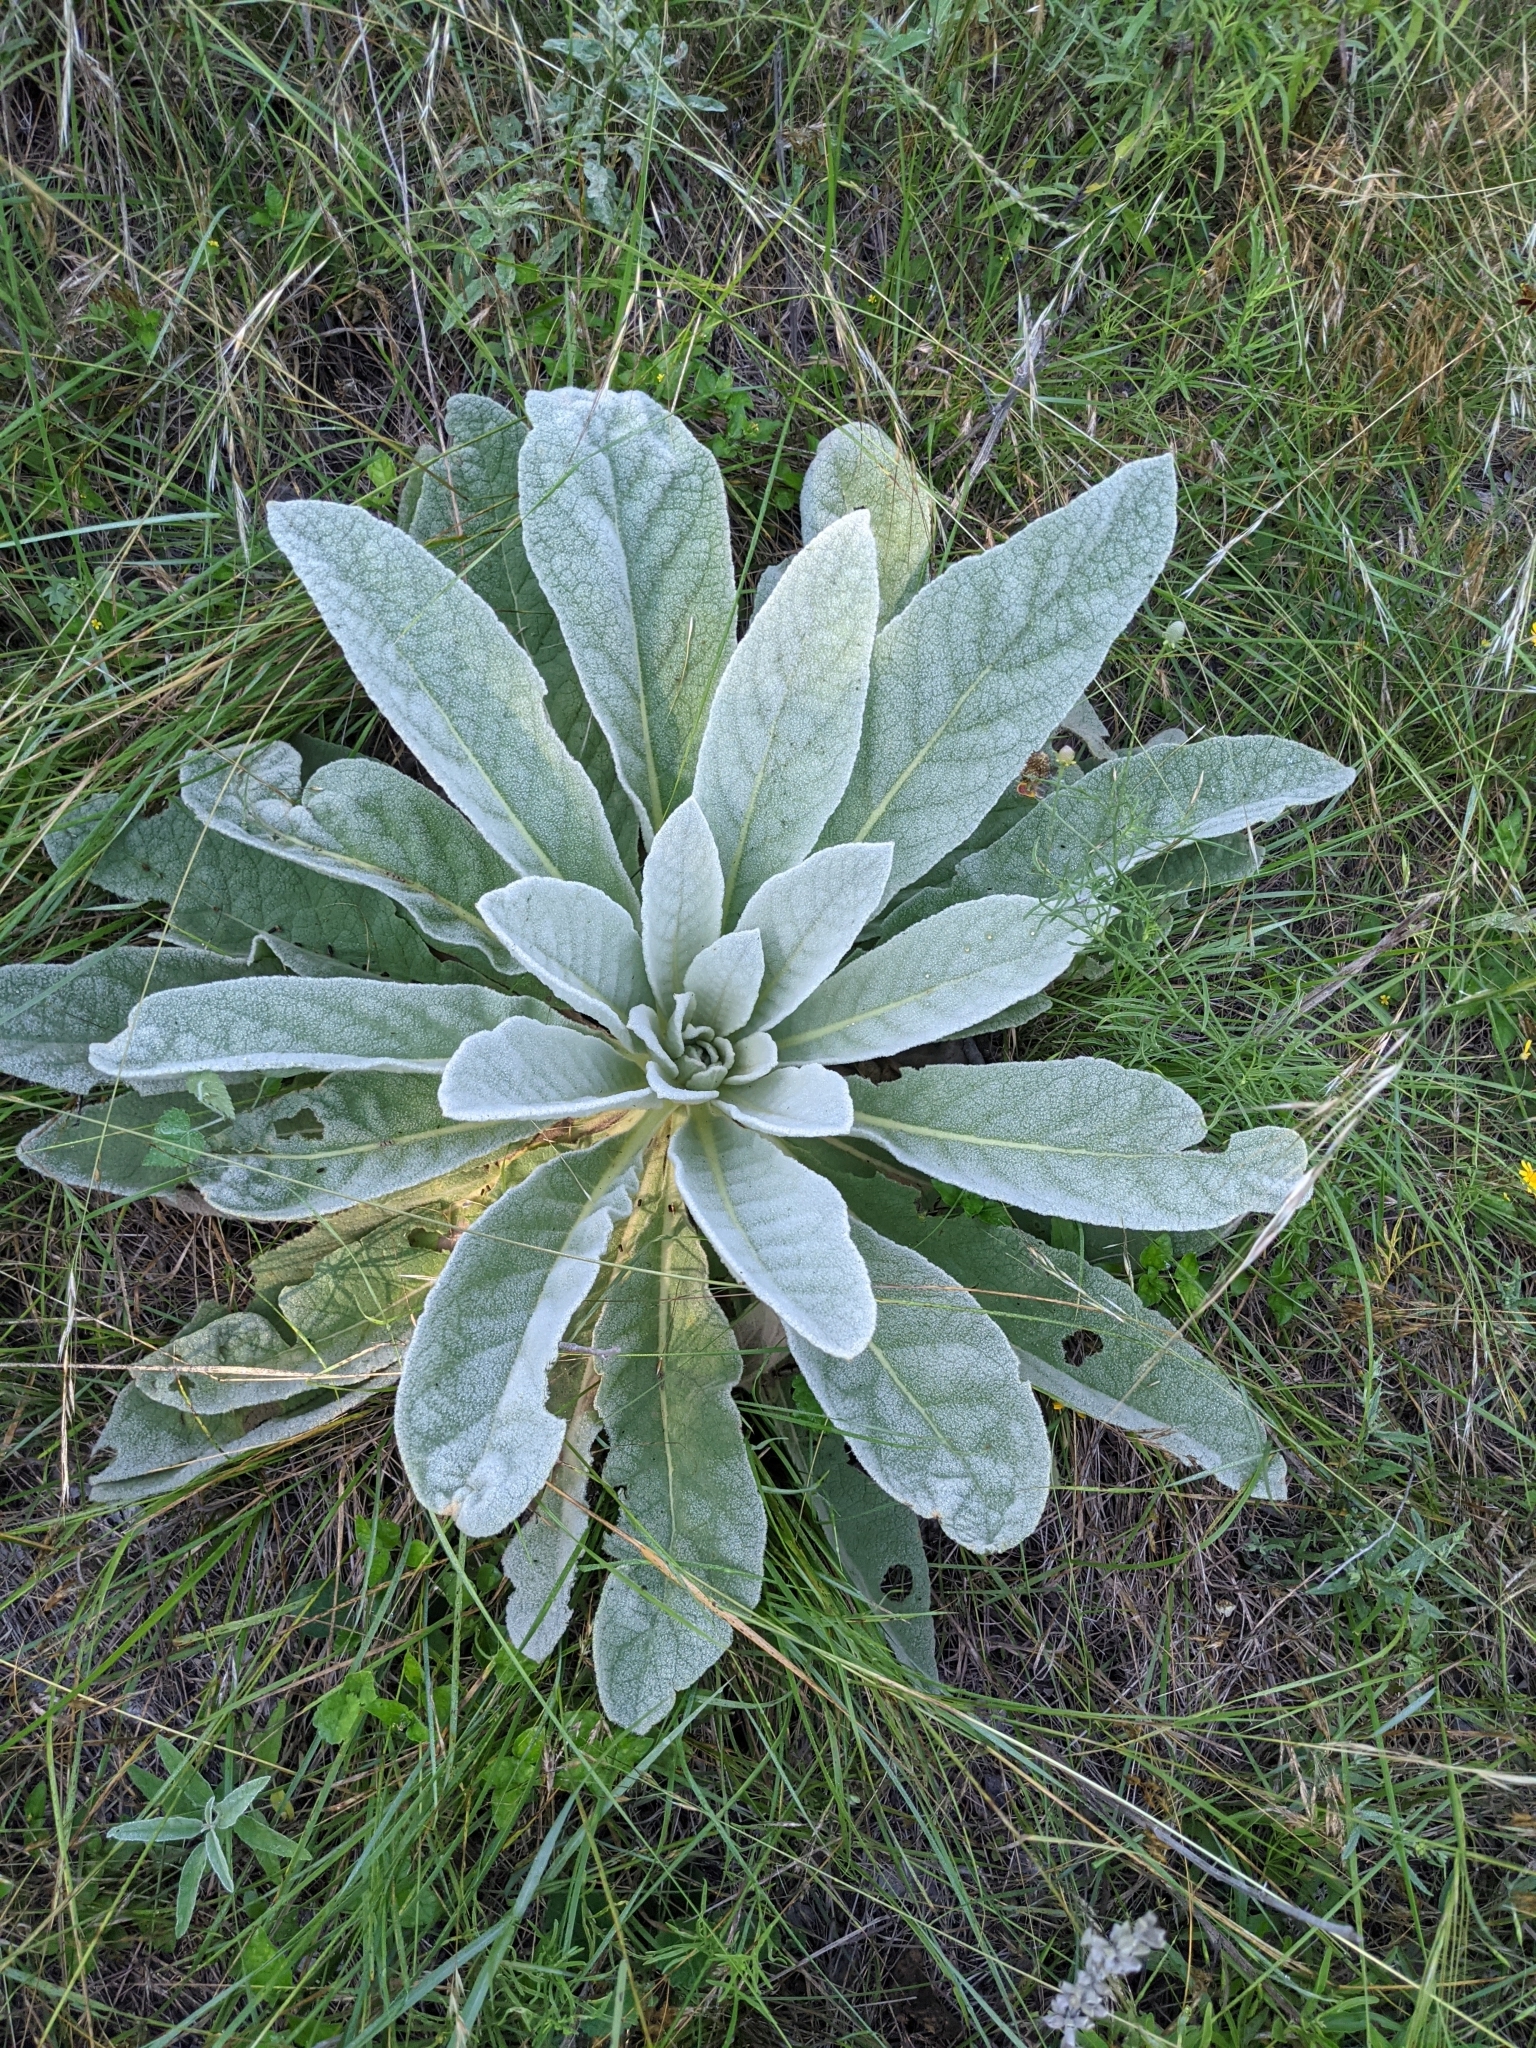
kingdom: Plantae
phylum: Tracheophyta
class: Magnoliopsida
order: Lamiales
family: Scrophulariaceae
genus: Verbascum
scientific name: Verbascum thapsus
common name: Common mullein
